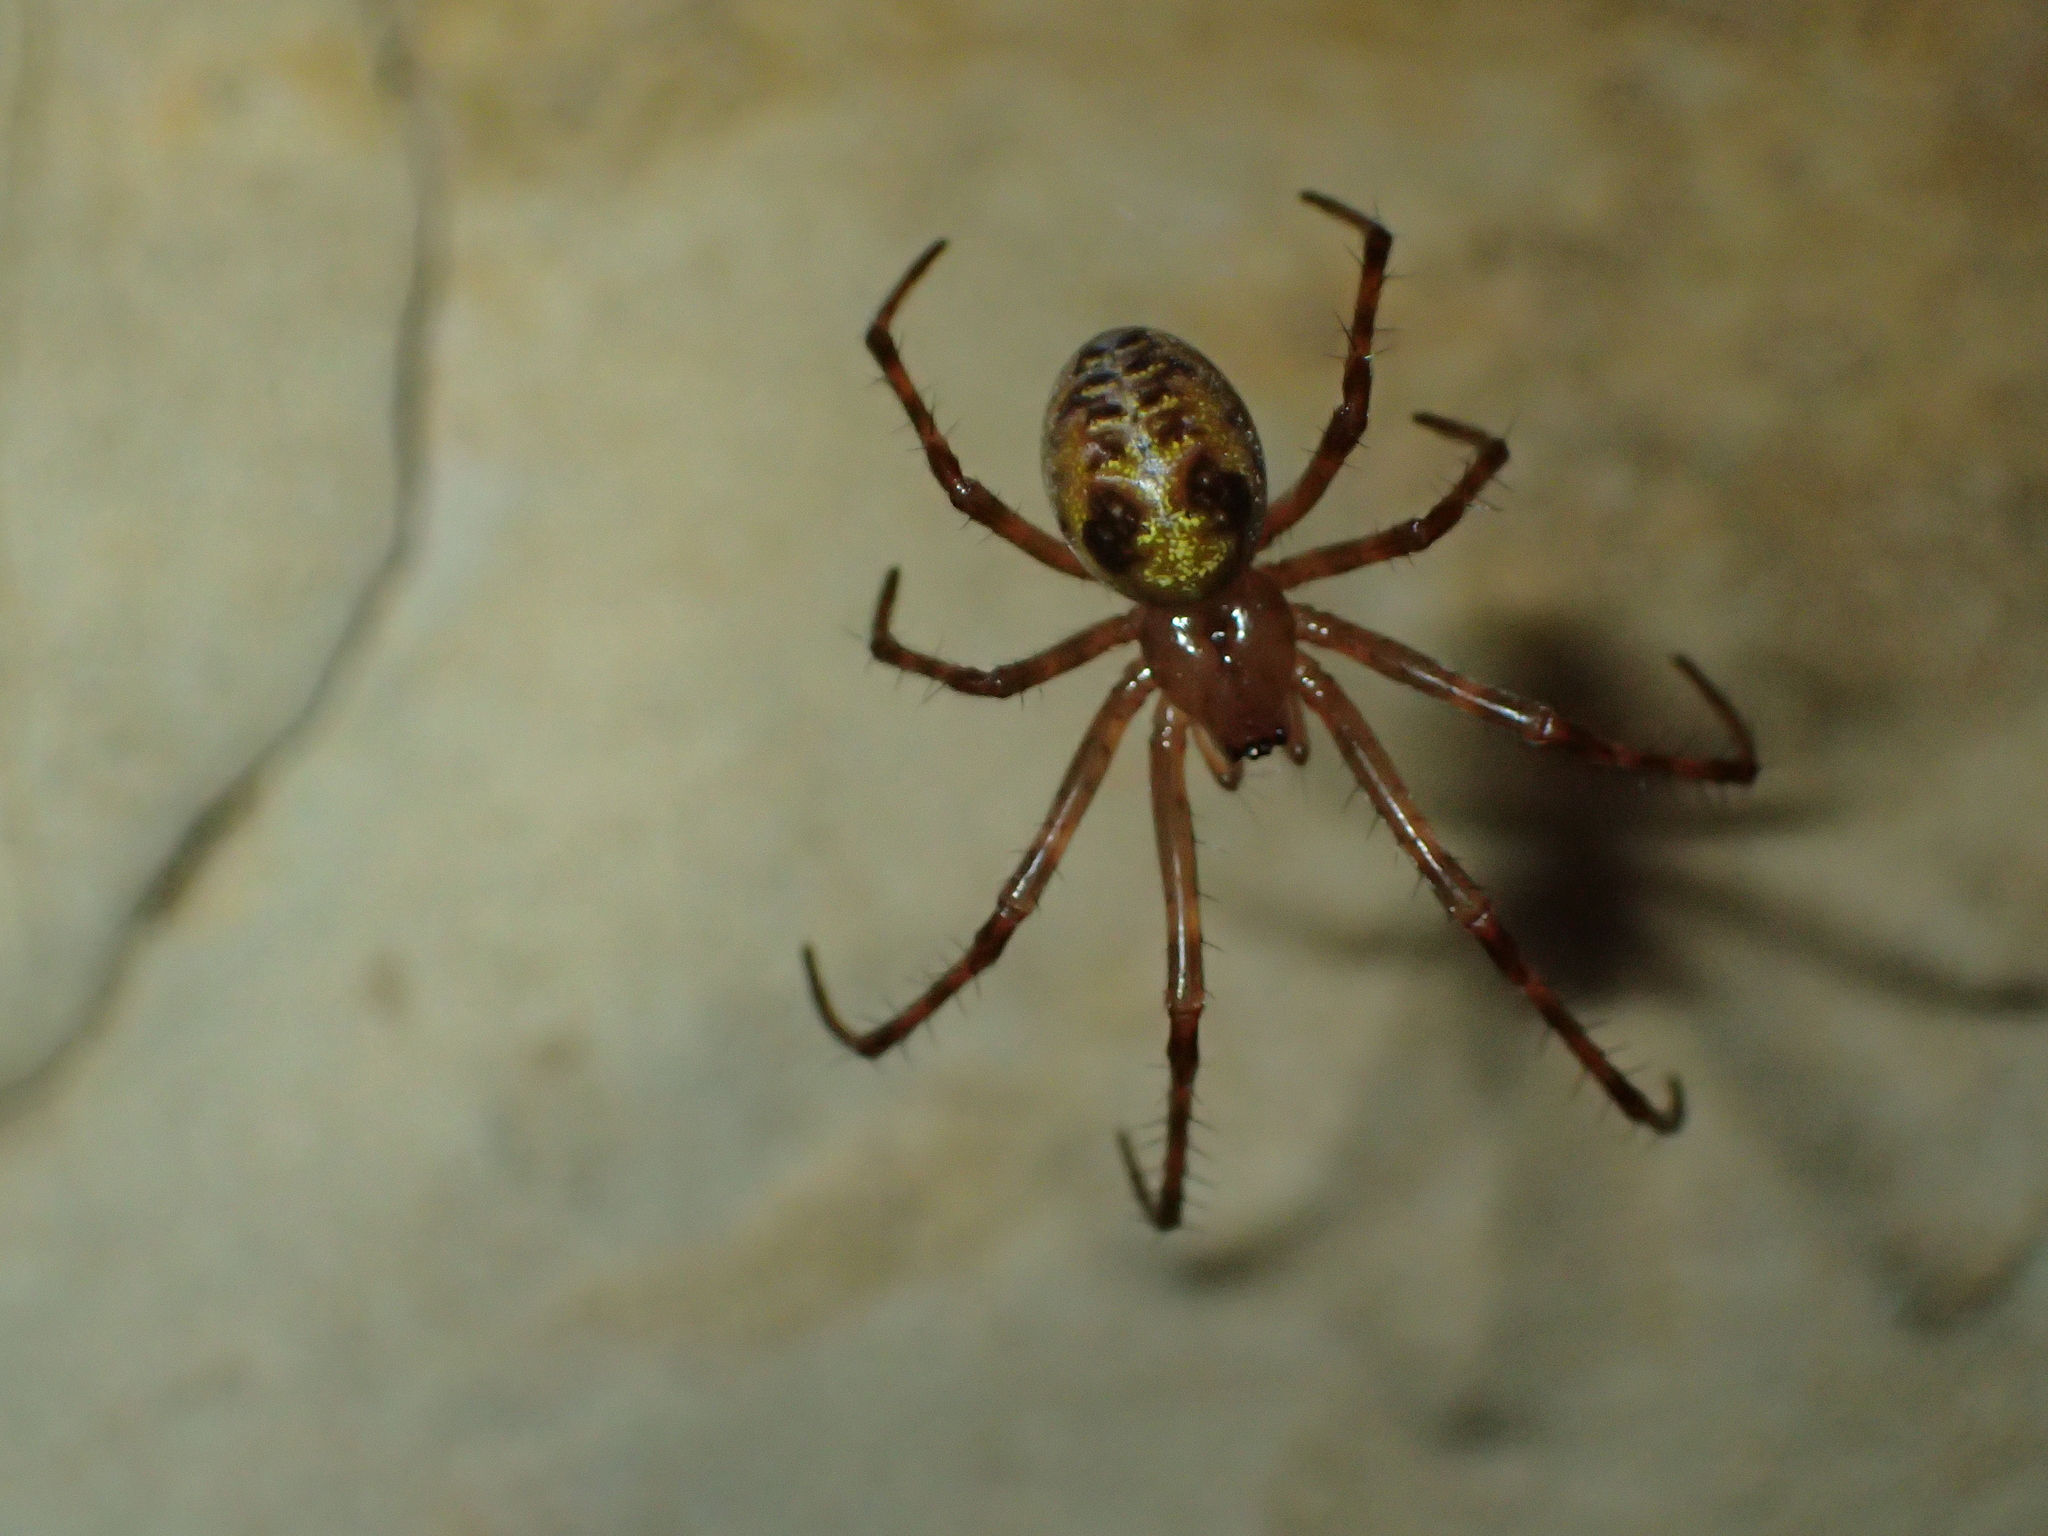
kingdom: Animalia
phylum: Arthropoda
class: Arachnida
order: Araneae
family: Tetragnathidae
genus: Meta
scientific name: Meta menardi
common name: Cave spider
